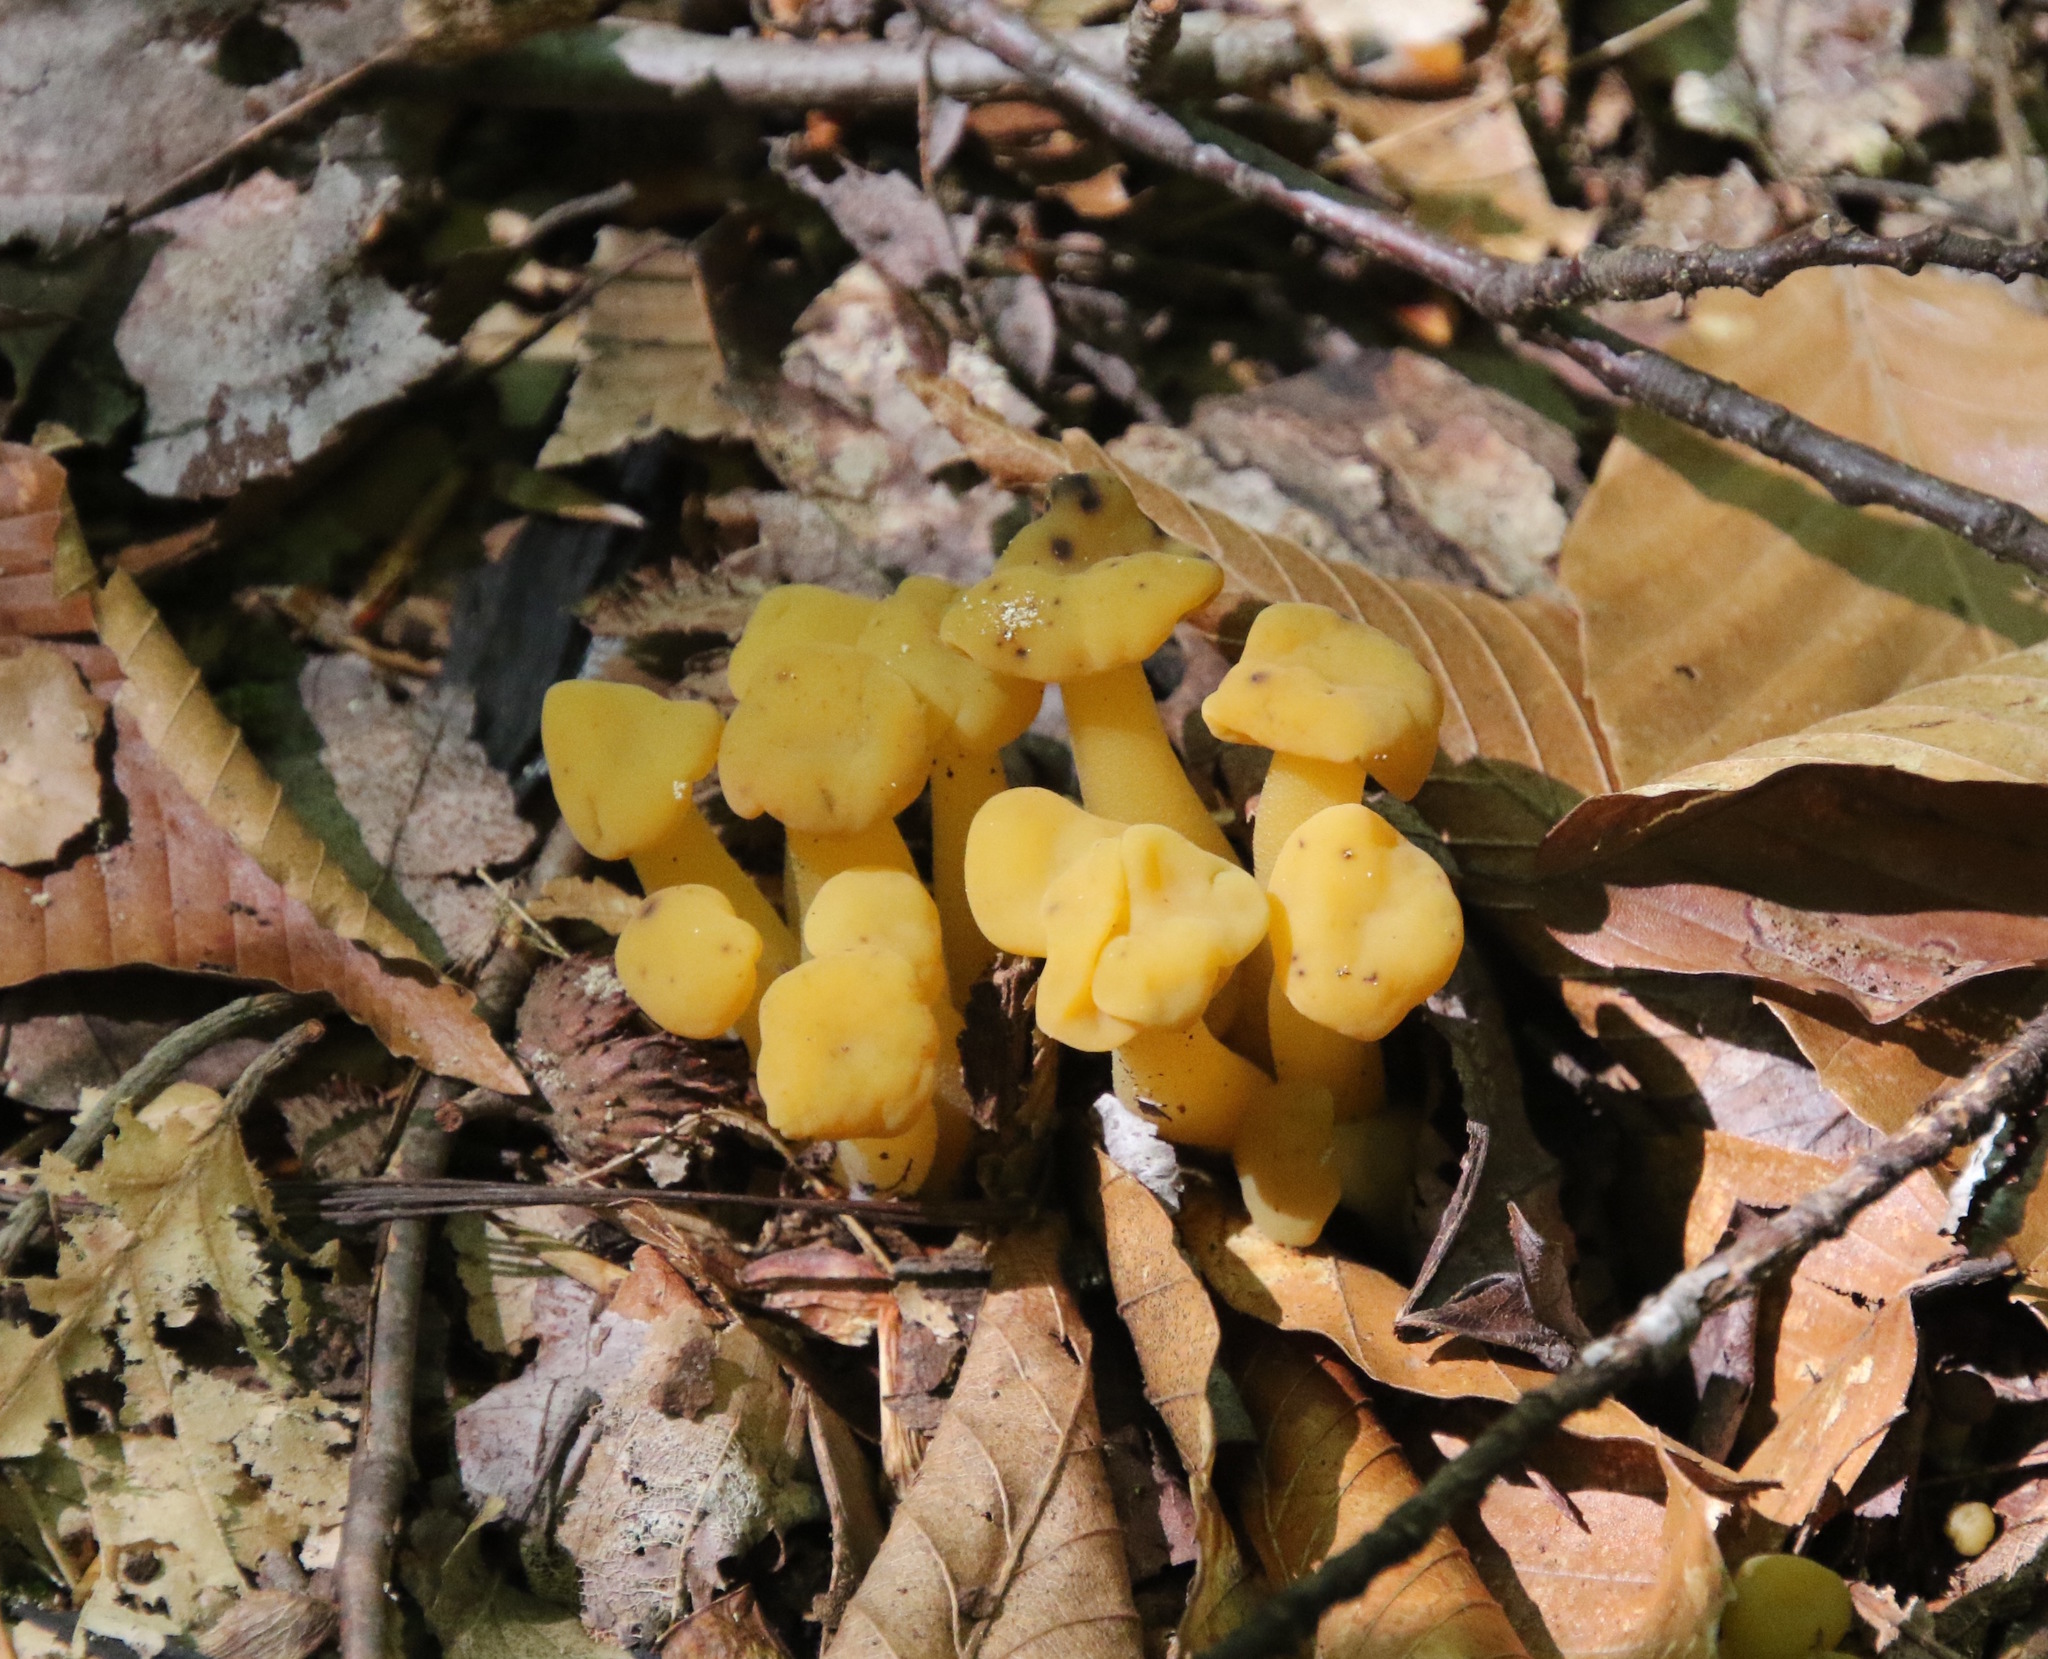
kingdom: Fungi
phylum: Ascomycota
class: Leotiomycetes
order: Leotiales
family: Leotiaceae
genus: Leotia
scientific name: Leotia lubrica
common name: Jellybaby
